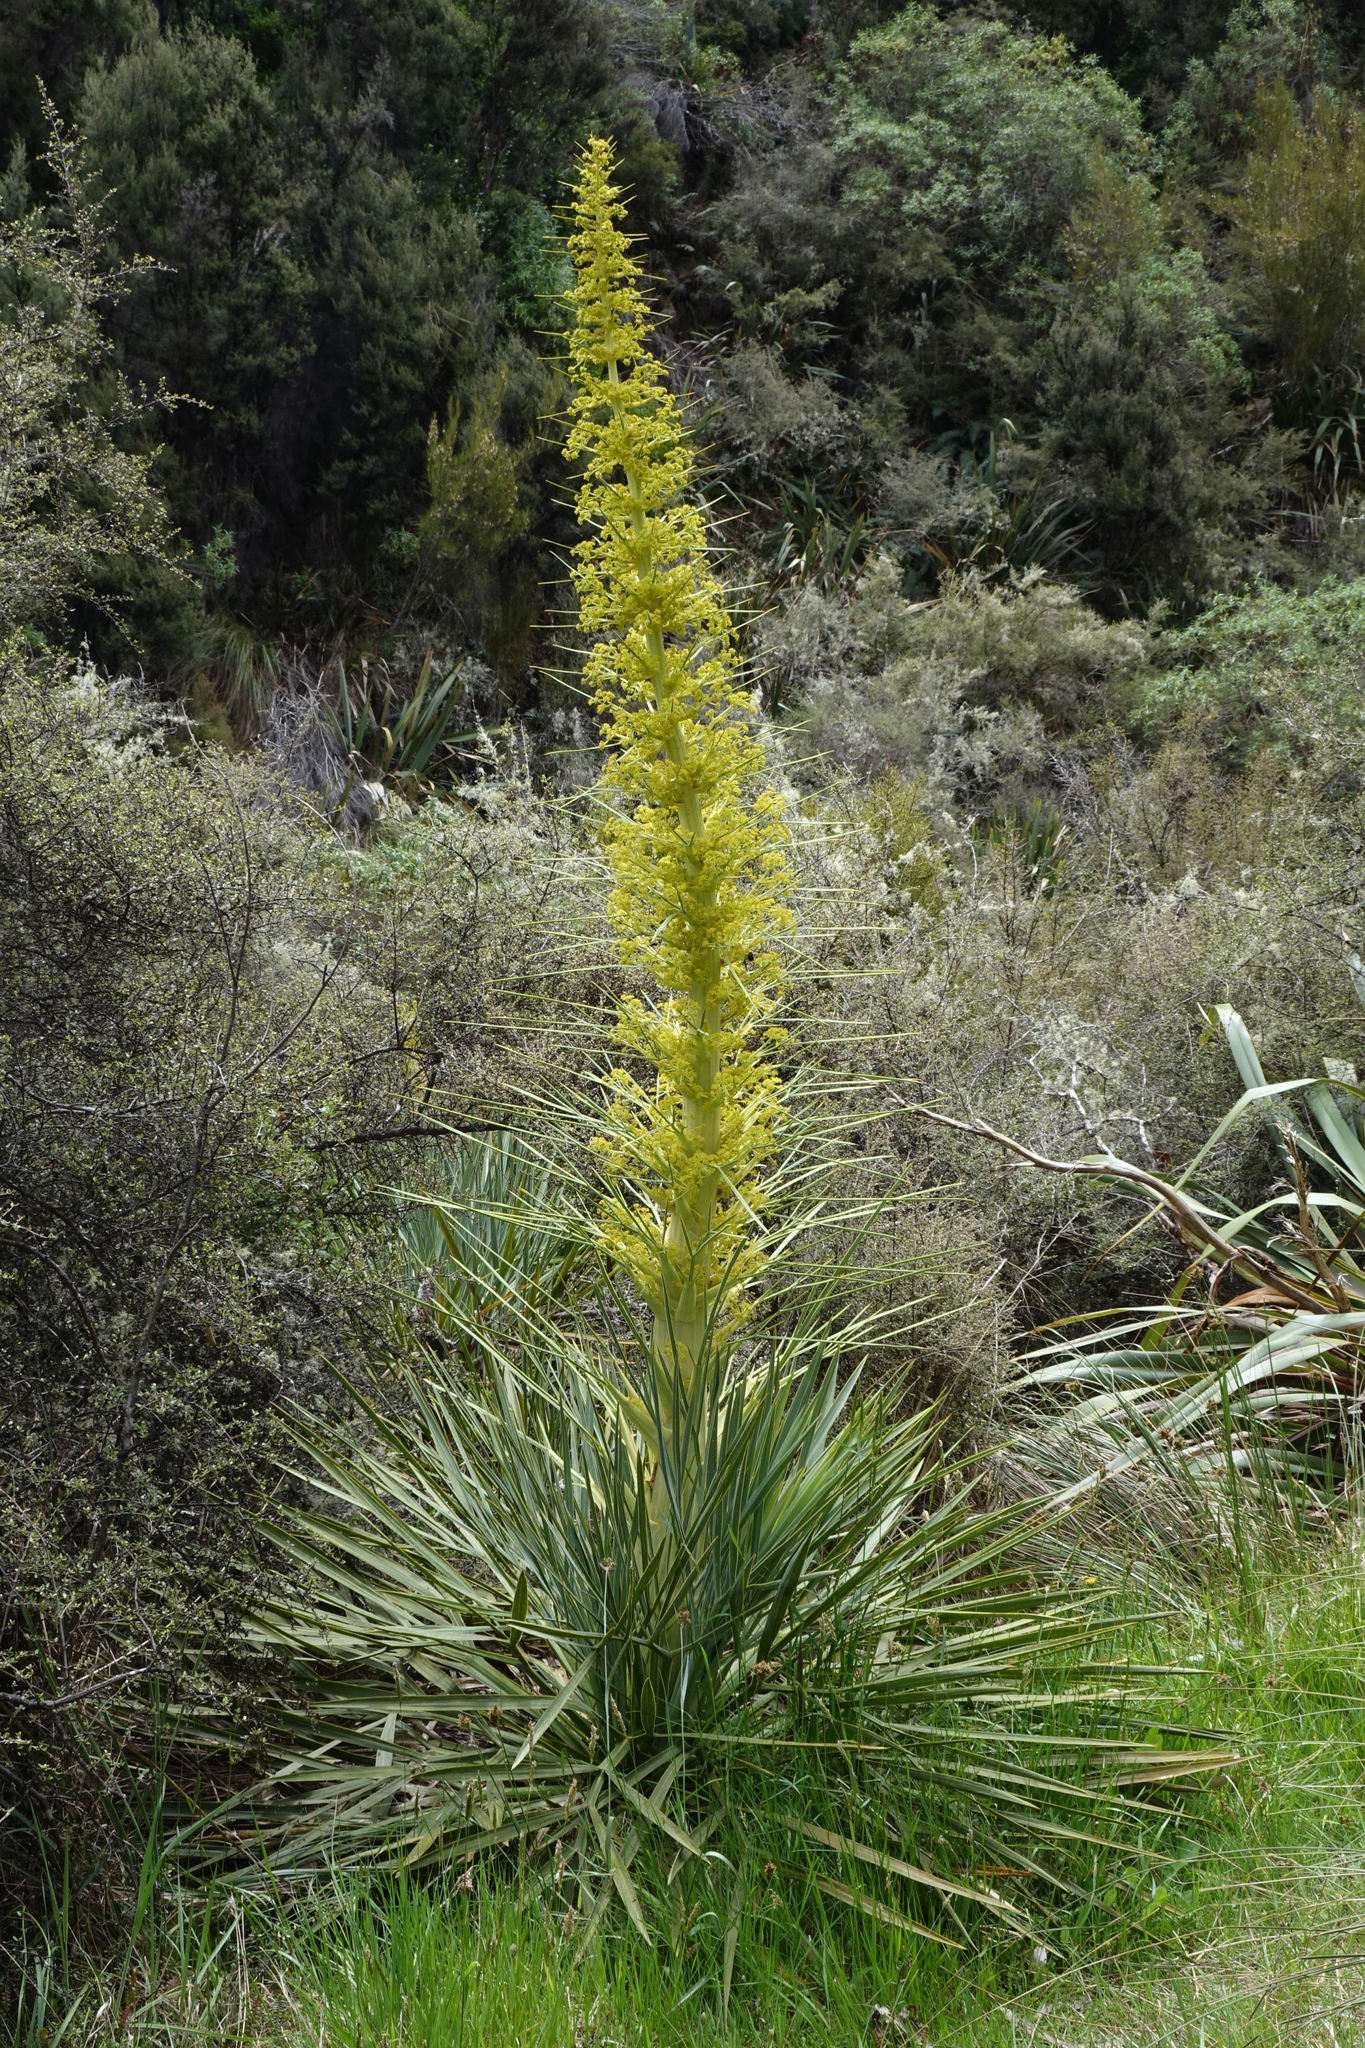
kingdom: Plantae
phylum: Tracheophyta
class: Magnoliopsida
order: Apiales
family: Apiaceae
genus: Aciphylla
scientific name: Aciphylla scott-thomsonii
